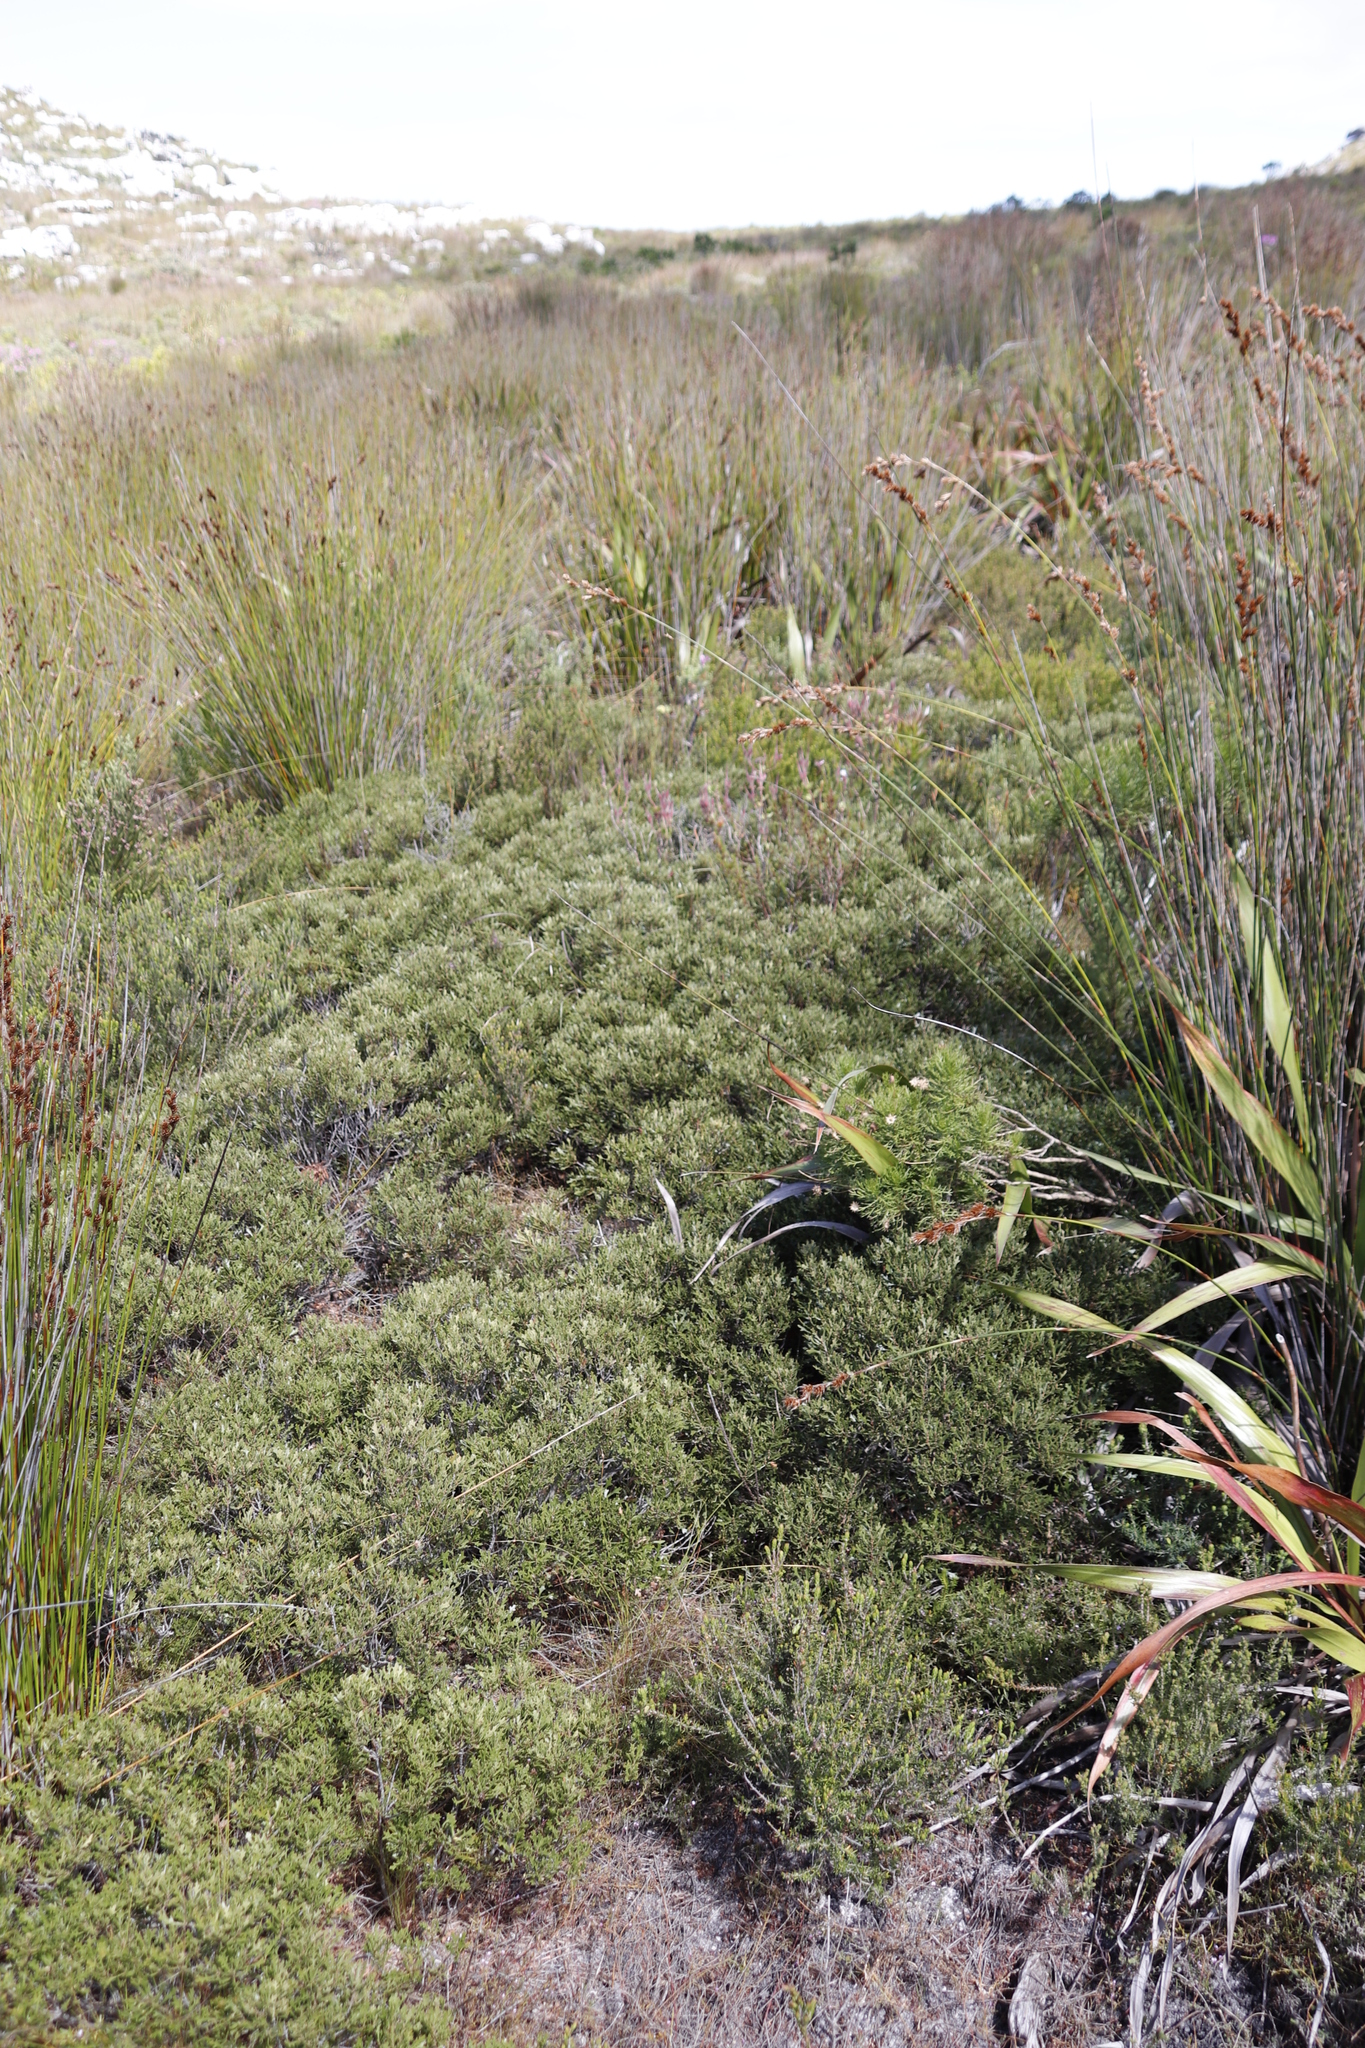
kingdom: Plantae
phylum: Tracheophyta
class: Magnoliopsida
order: Fagales
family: Myricaceae
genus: Morella
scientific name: Morella quercifolia
